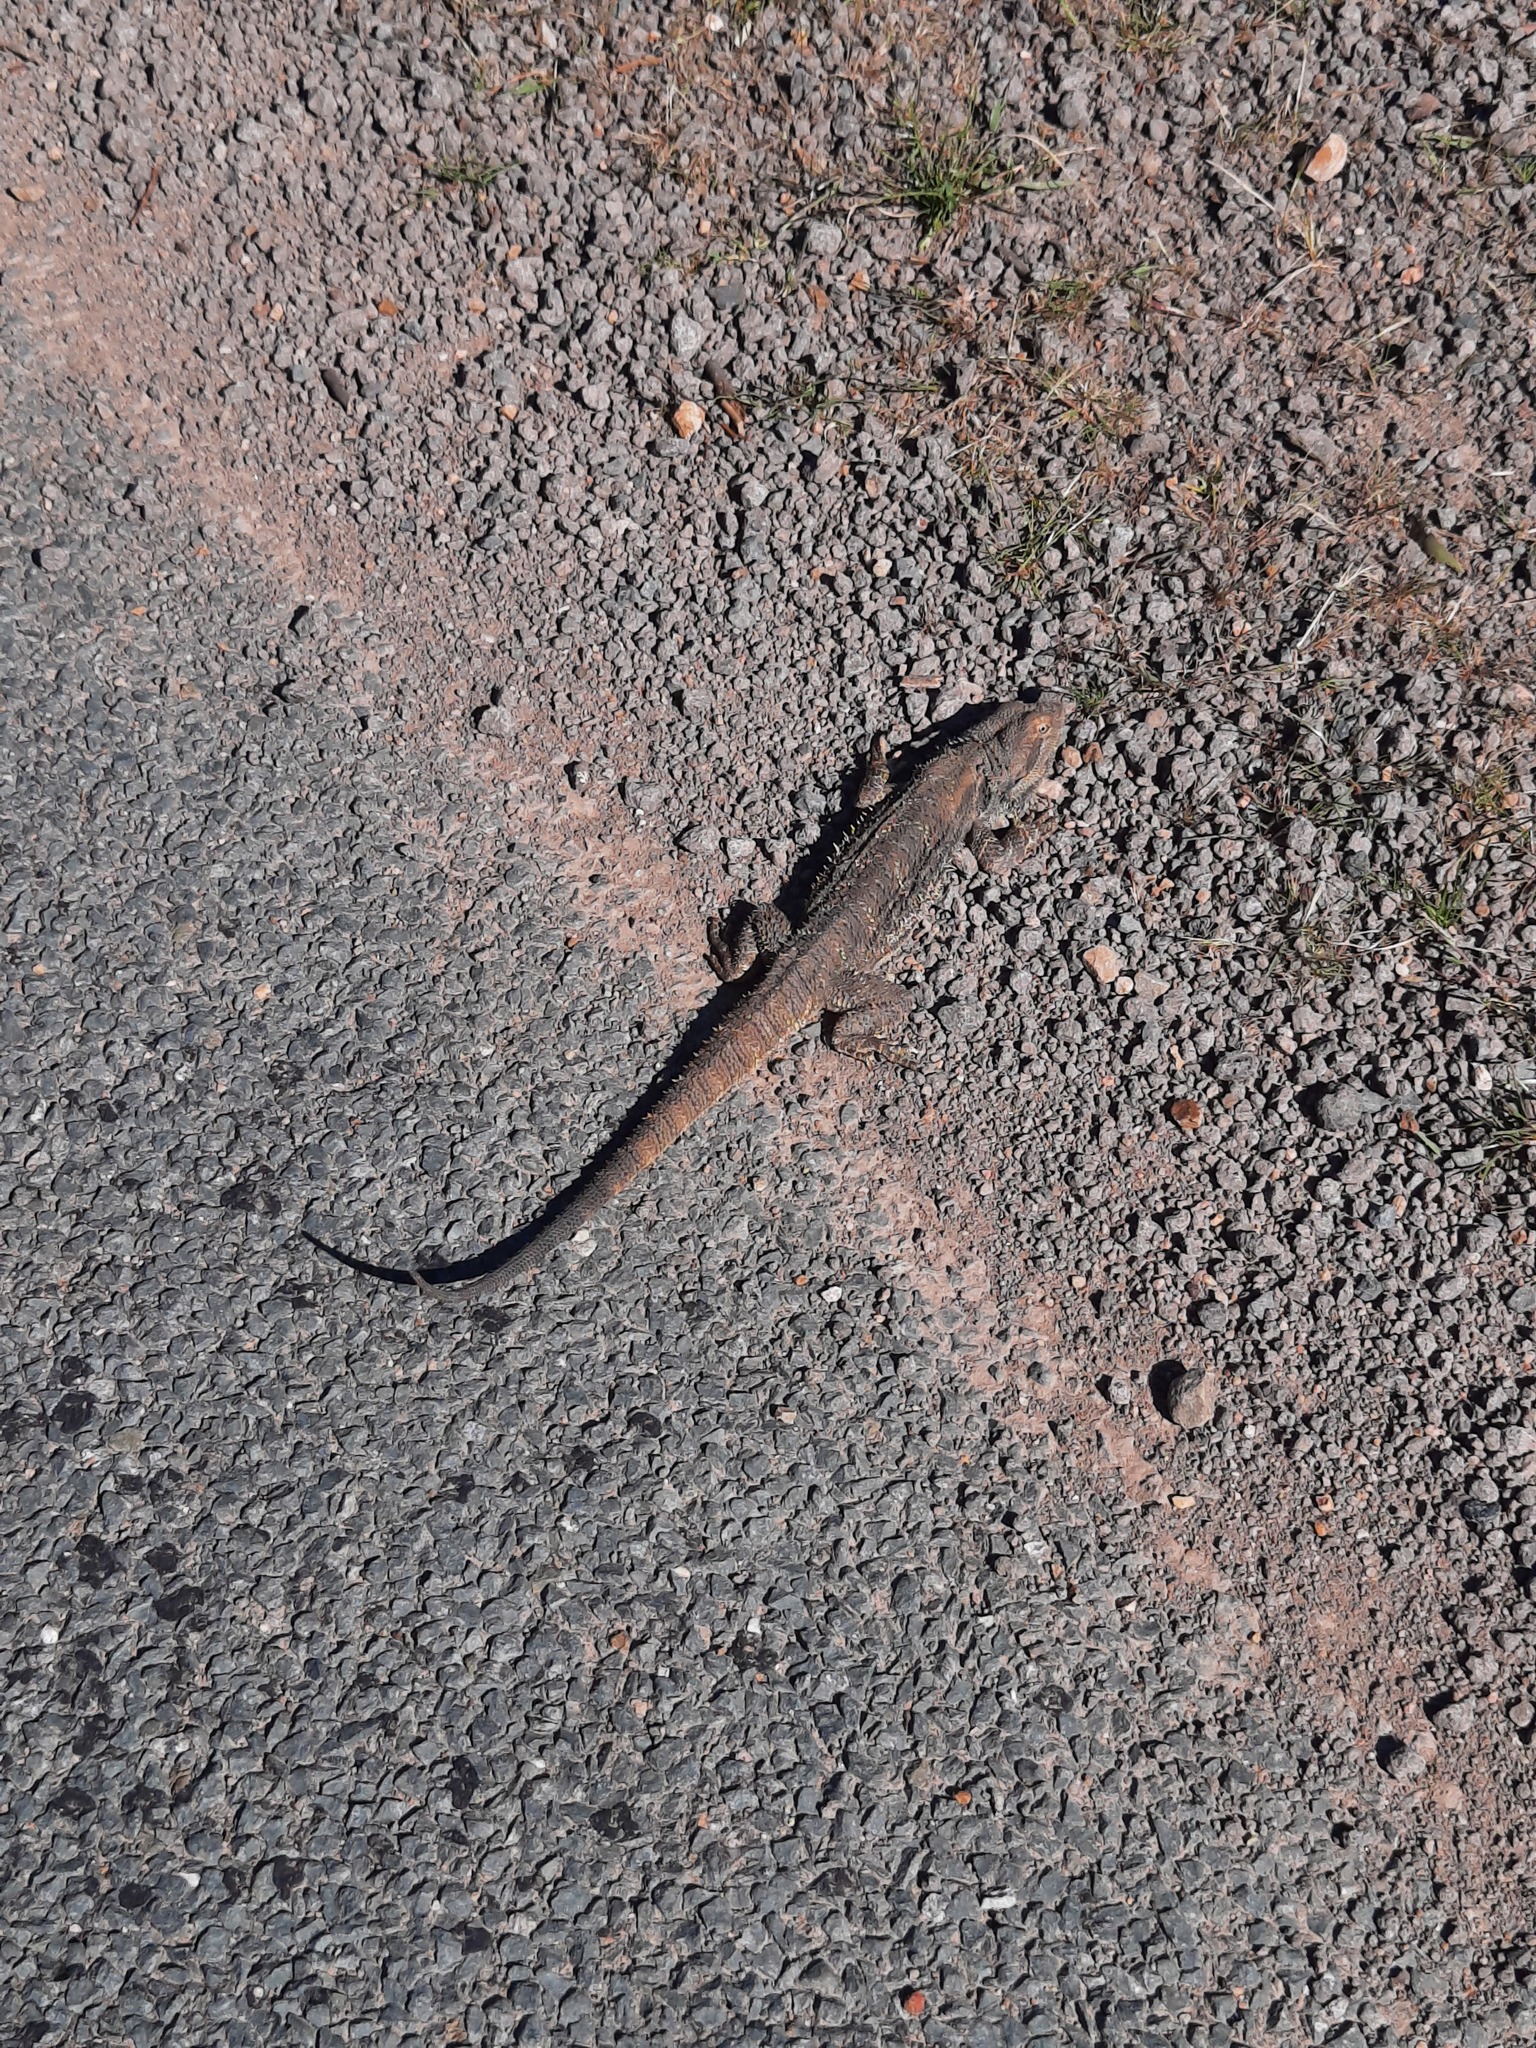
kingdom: Animalia
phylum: Chordata
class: Squamata
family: Agamidae
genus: Pogona
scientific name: Pogona barbata
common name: Bearded dragon
